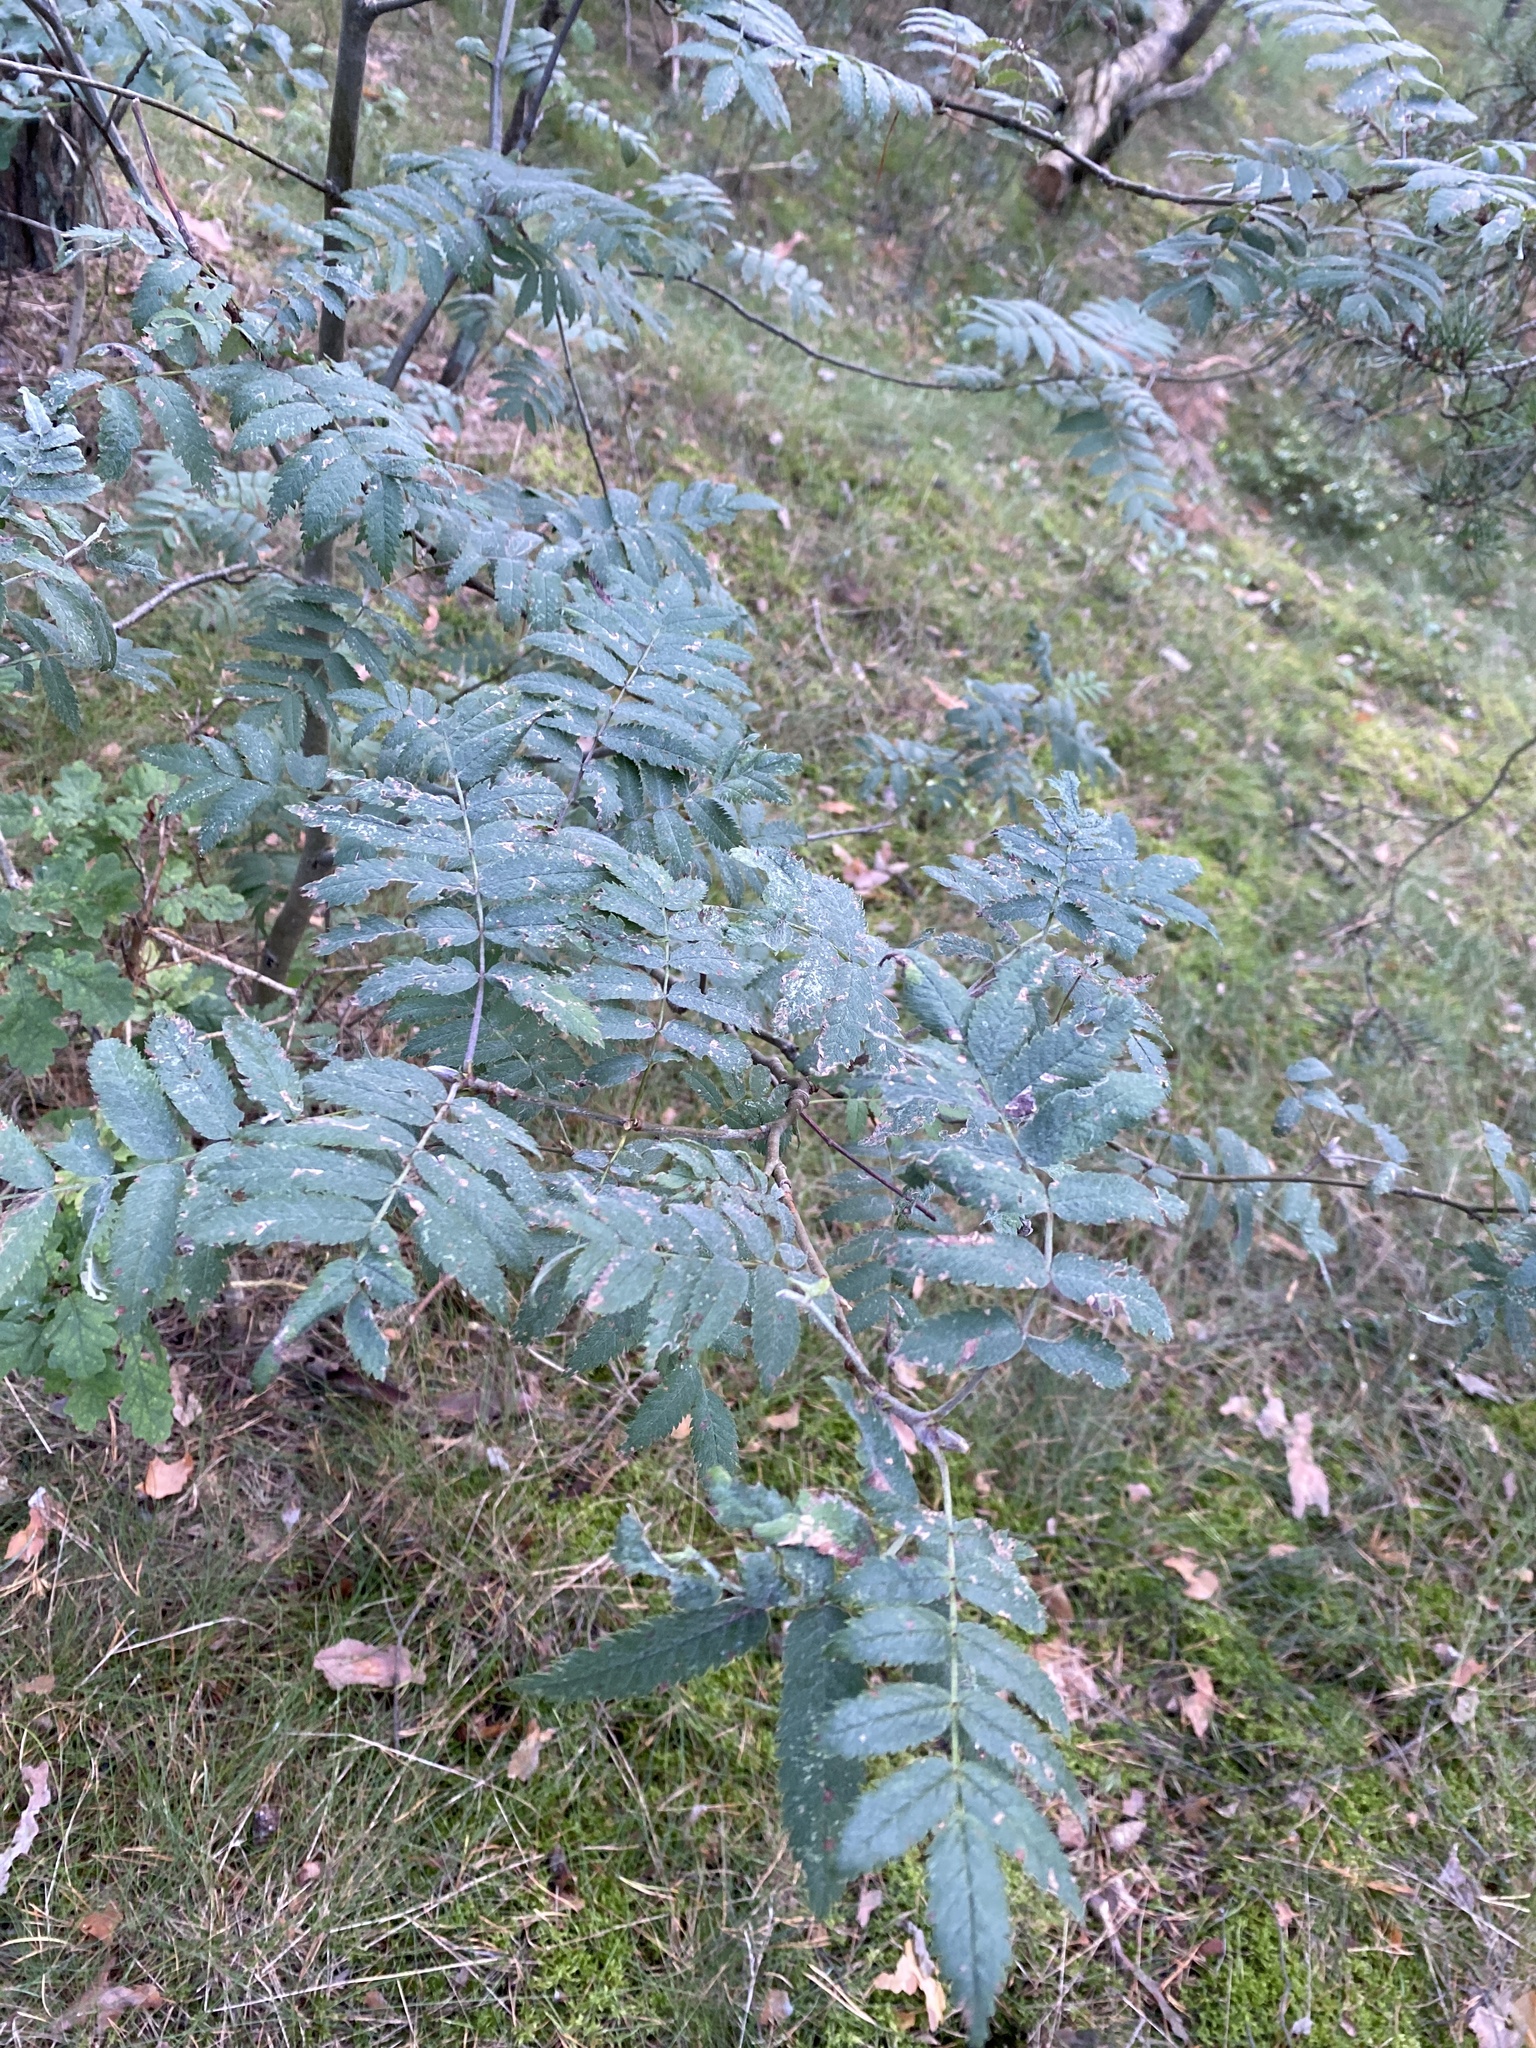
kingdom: Plantae
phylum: Tracheophyta
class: Magnoliopsida
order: Rosales
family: Rosaceae
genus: Sorbus
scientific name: Sorbus aucuparia
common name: Rowan
